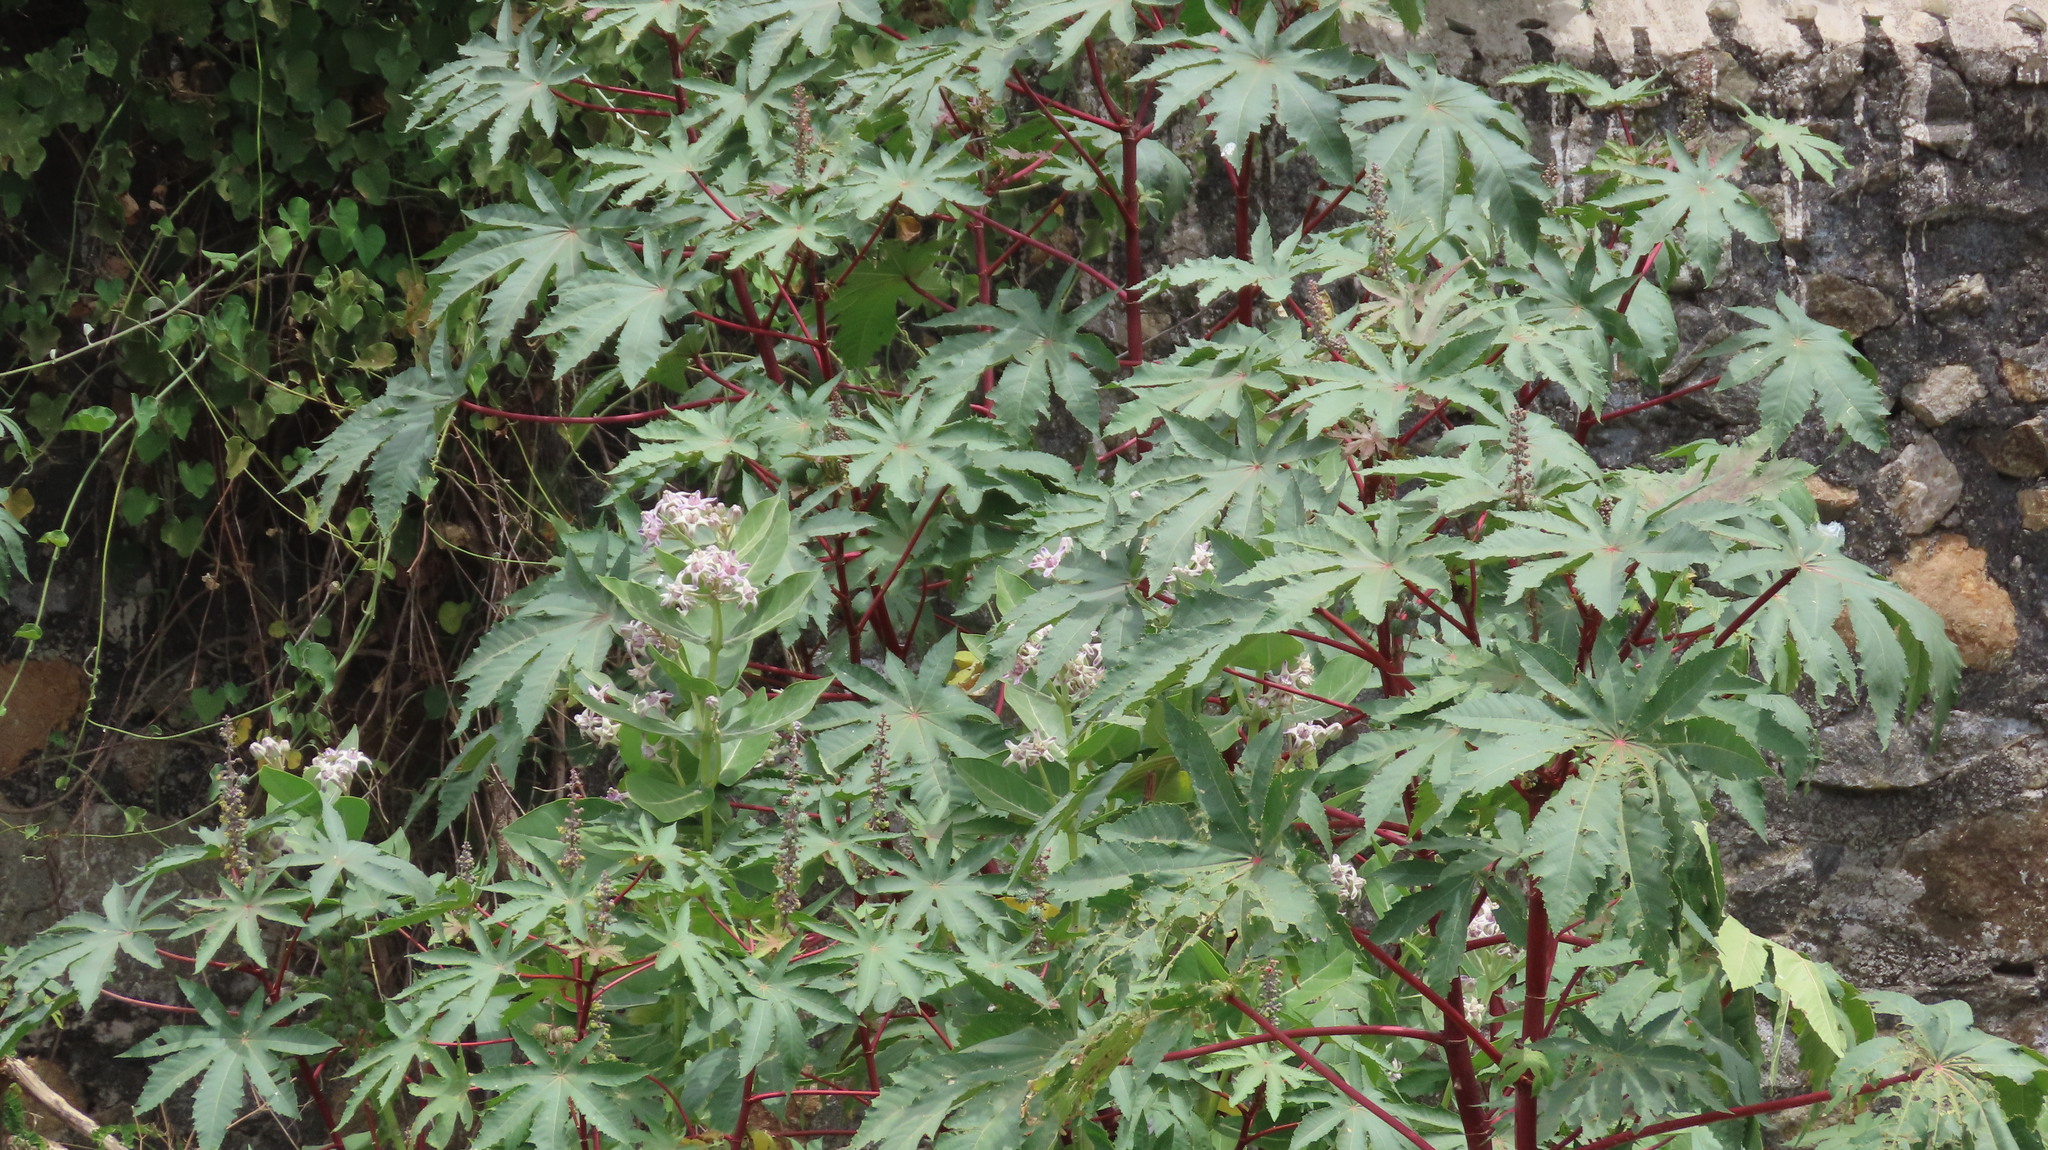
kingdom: Plantae
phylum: Tracheophyta
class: Magnoliopsida
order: Gentianales
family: Apocynaceae
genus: Calotropis
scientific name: Calotropis gigantea
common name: Crown flower
